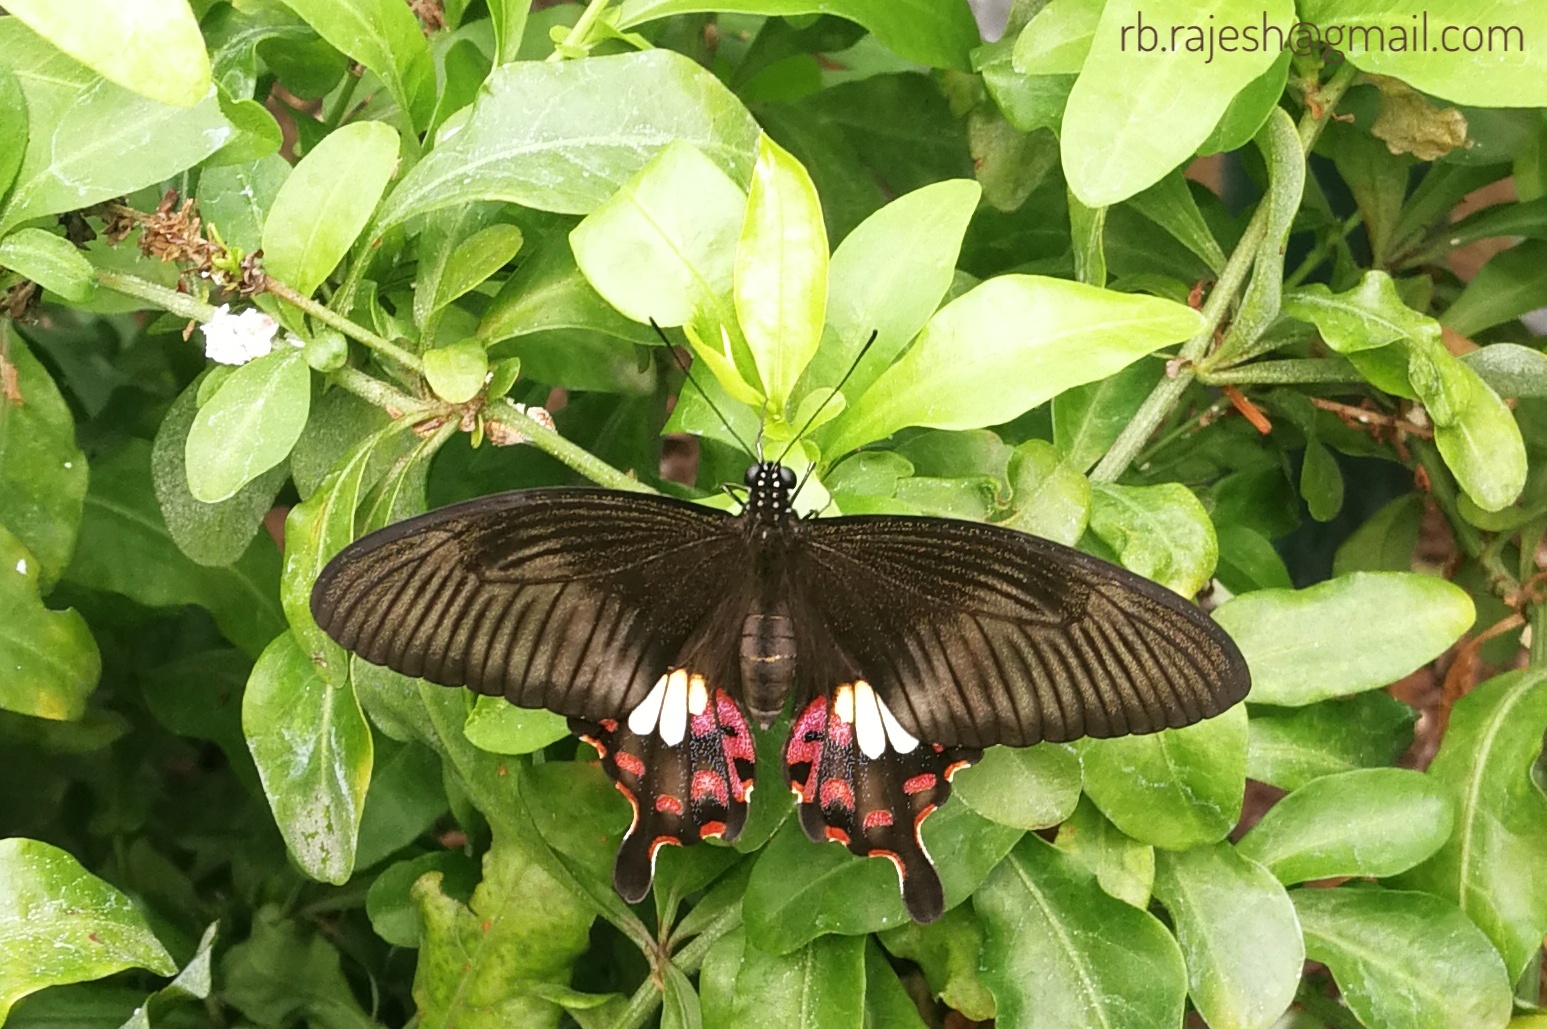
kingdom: Animalia
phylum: Arthropoda
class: Insecta
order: Lepidoptera
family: Papilionidae
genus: Papilio
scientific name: Papilio polytes
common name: Common mormon
